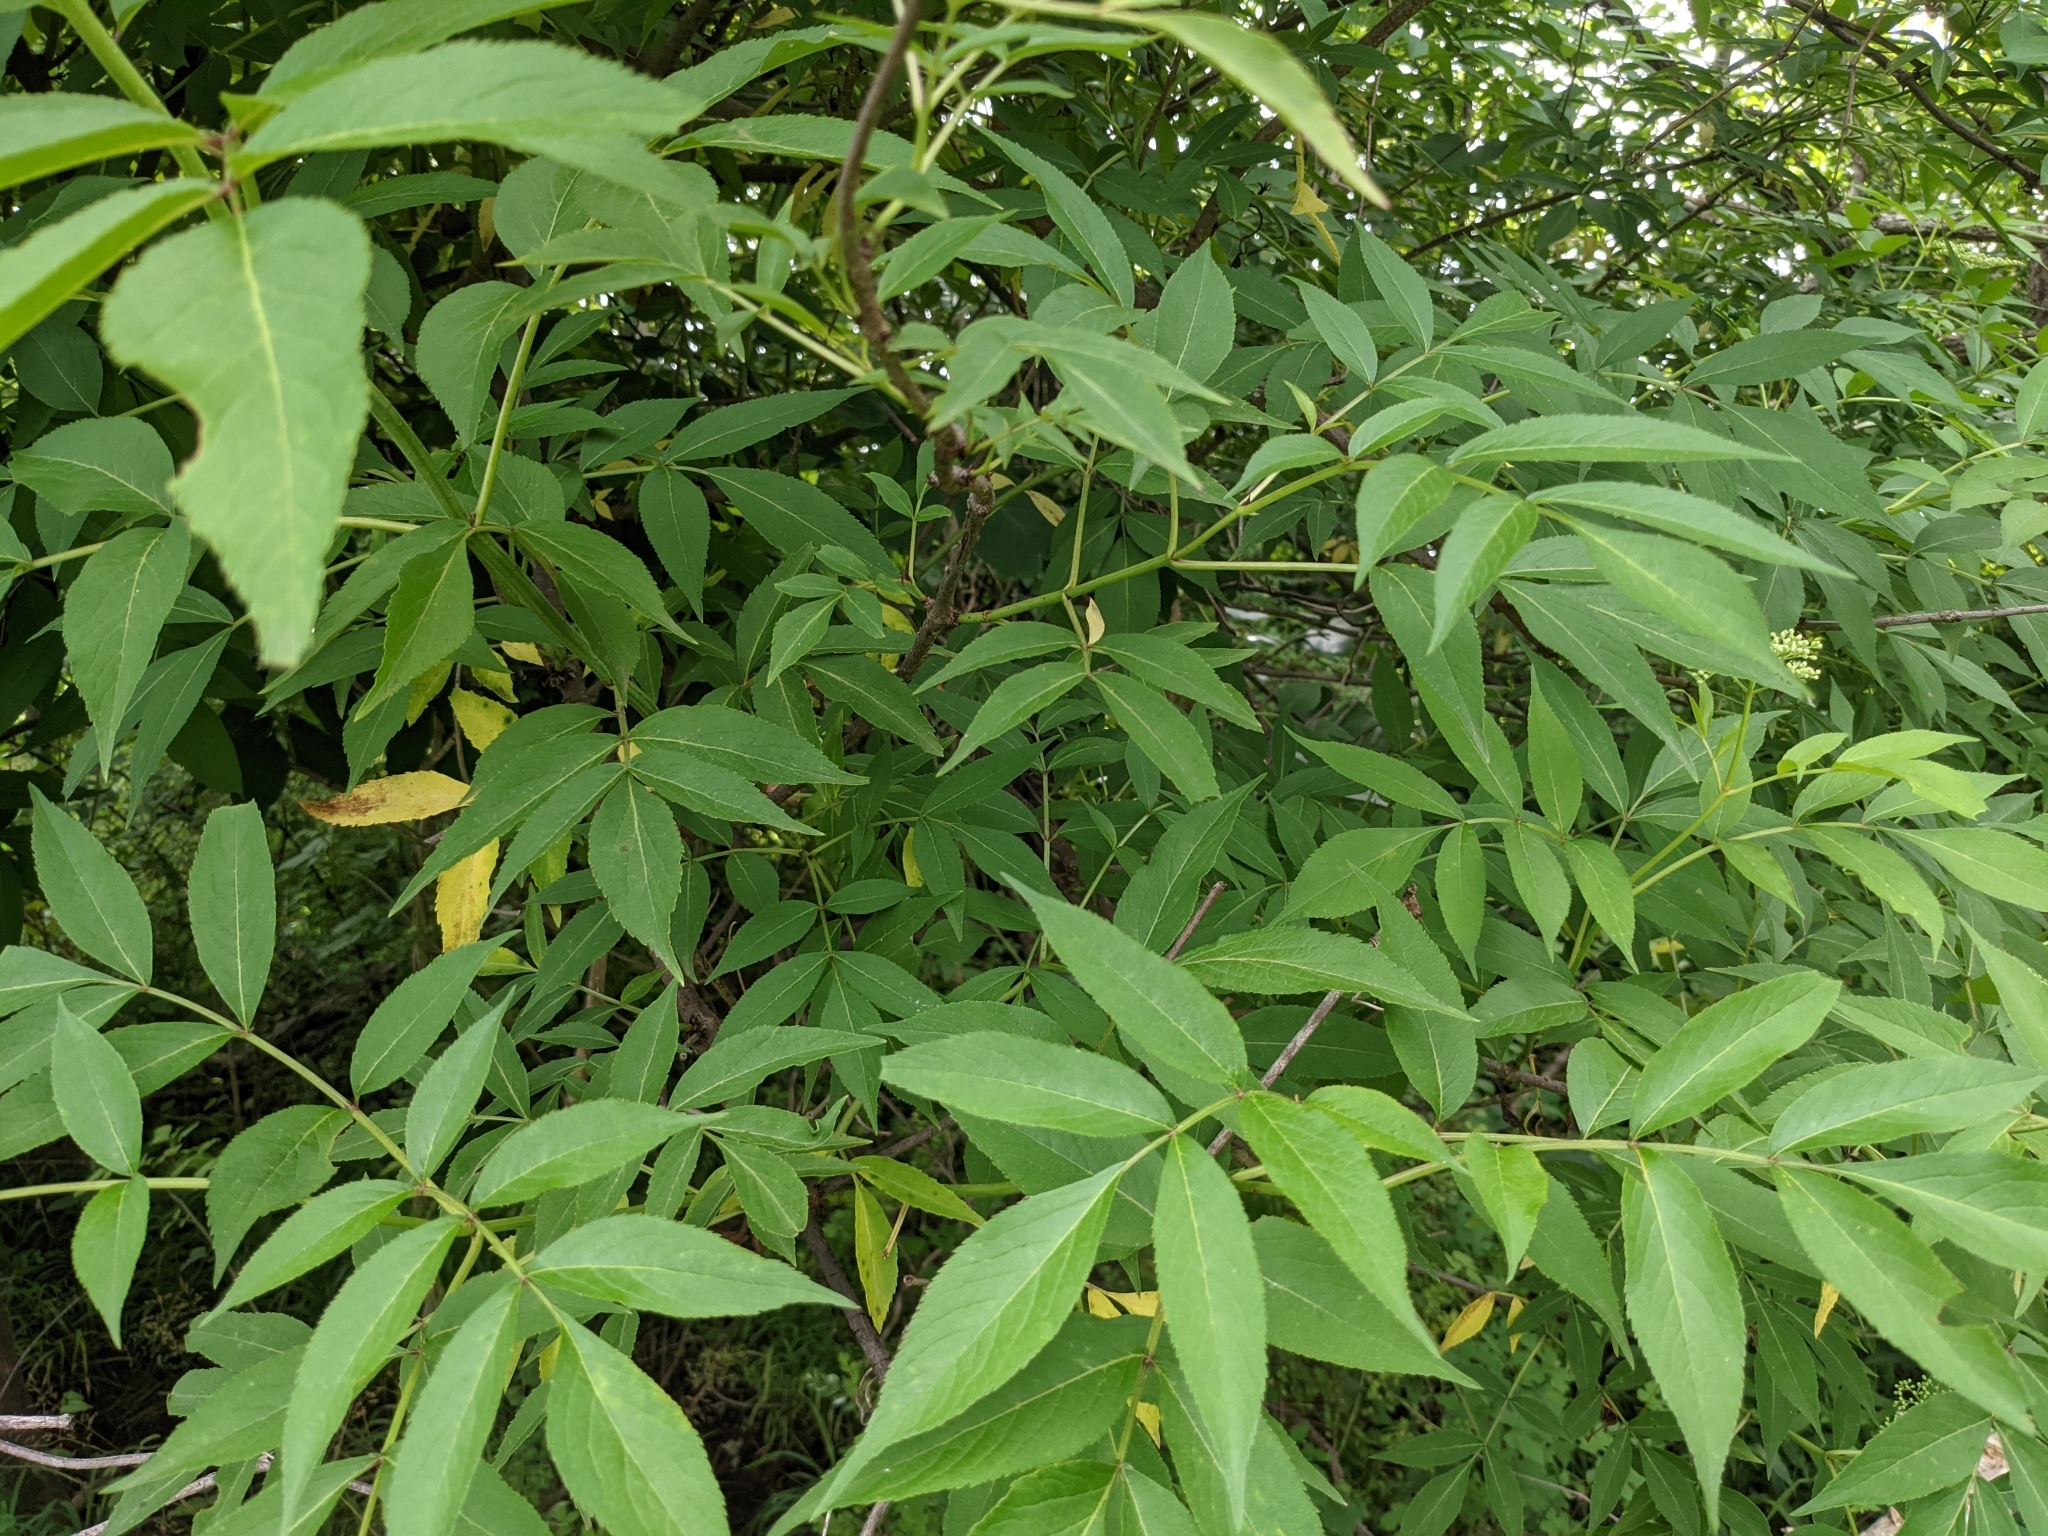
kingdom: Plantae
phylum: Tracheophyta
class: Magnoliopsida
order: Dipsacales
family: Viburnaceae
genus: Sambucus
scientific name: Sambucus canadensis
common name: American elder
